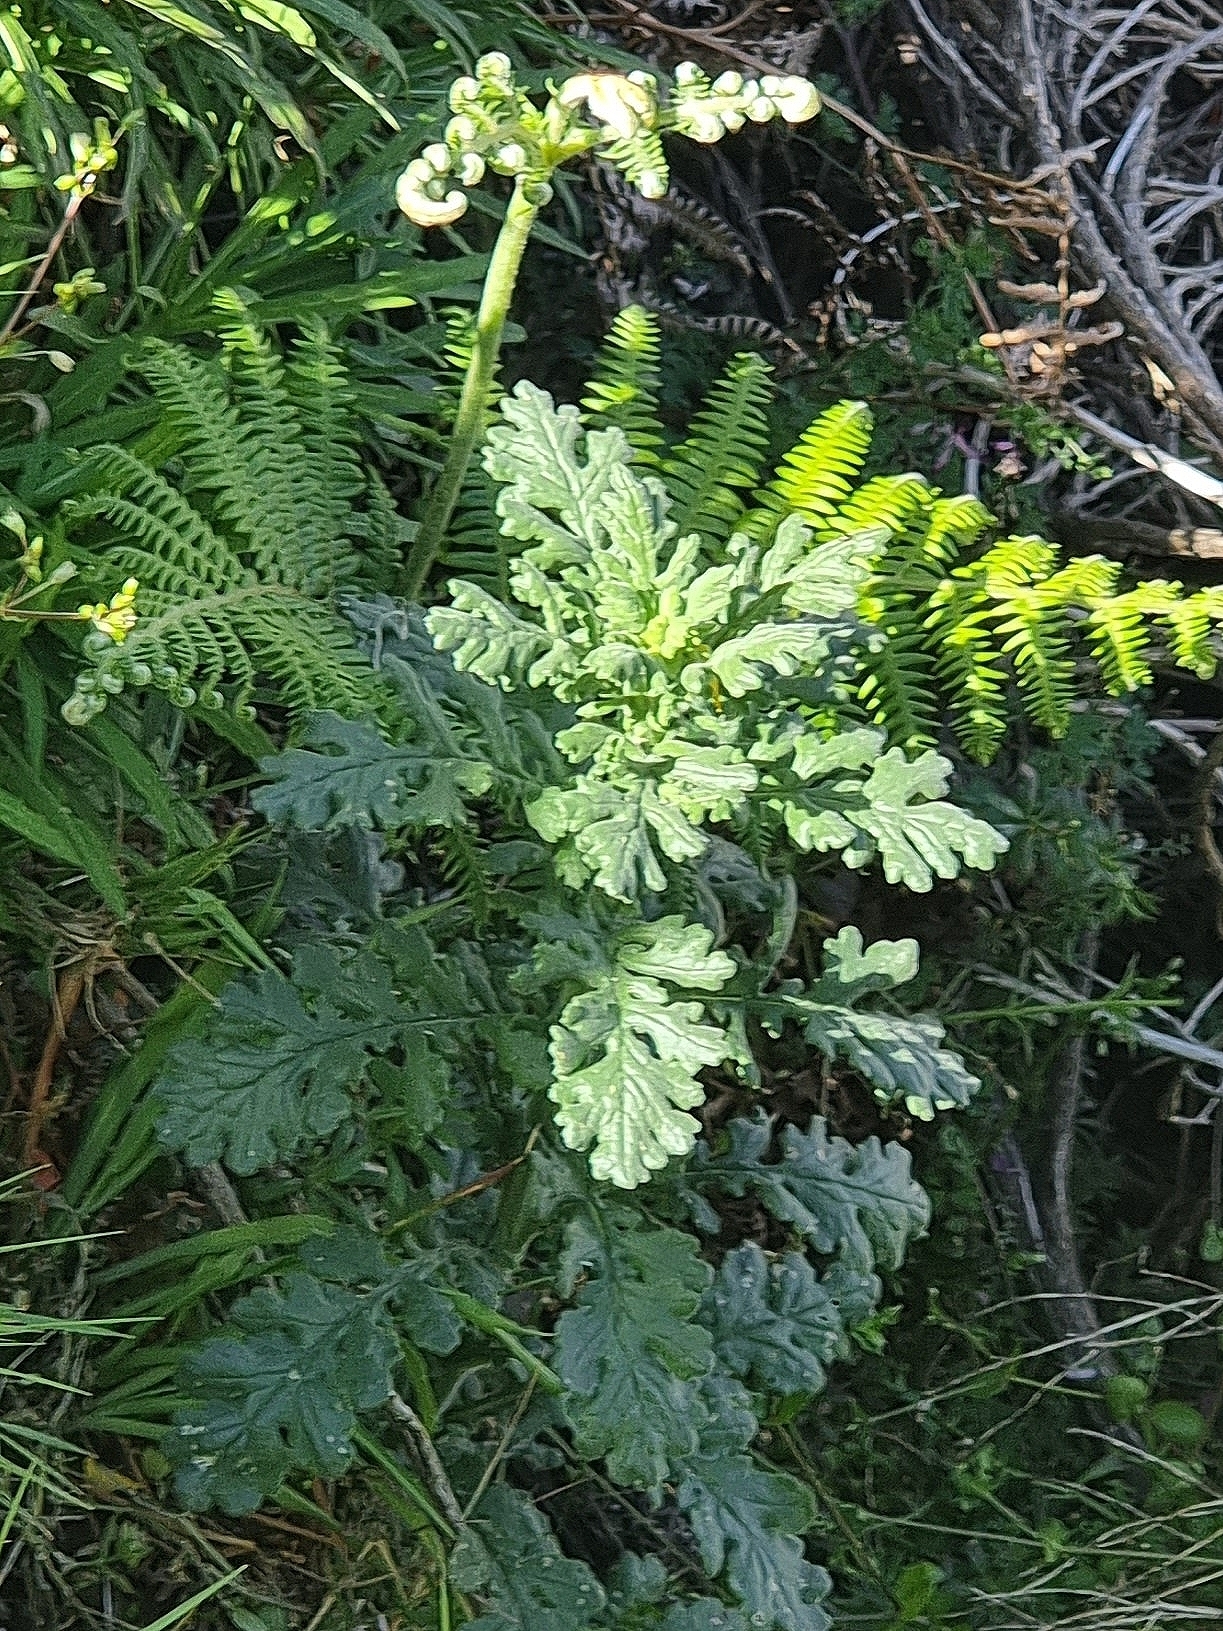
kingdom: Plantae
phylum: Tracheophyta
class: Magnoliopsida
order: Asterales
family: Asteraceae
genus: Senecio
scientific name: Senecio sylvaticus
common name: Woodland ragwort
